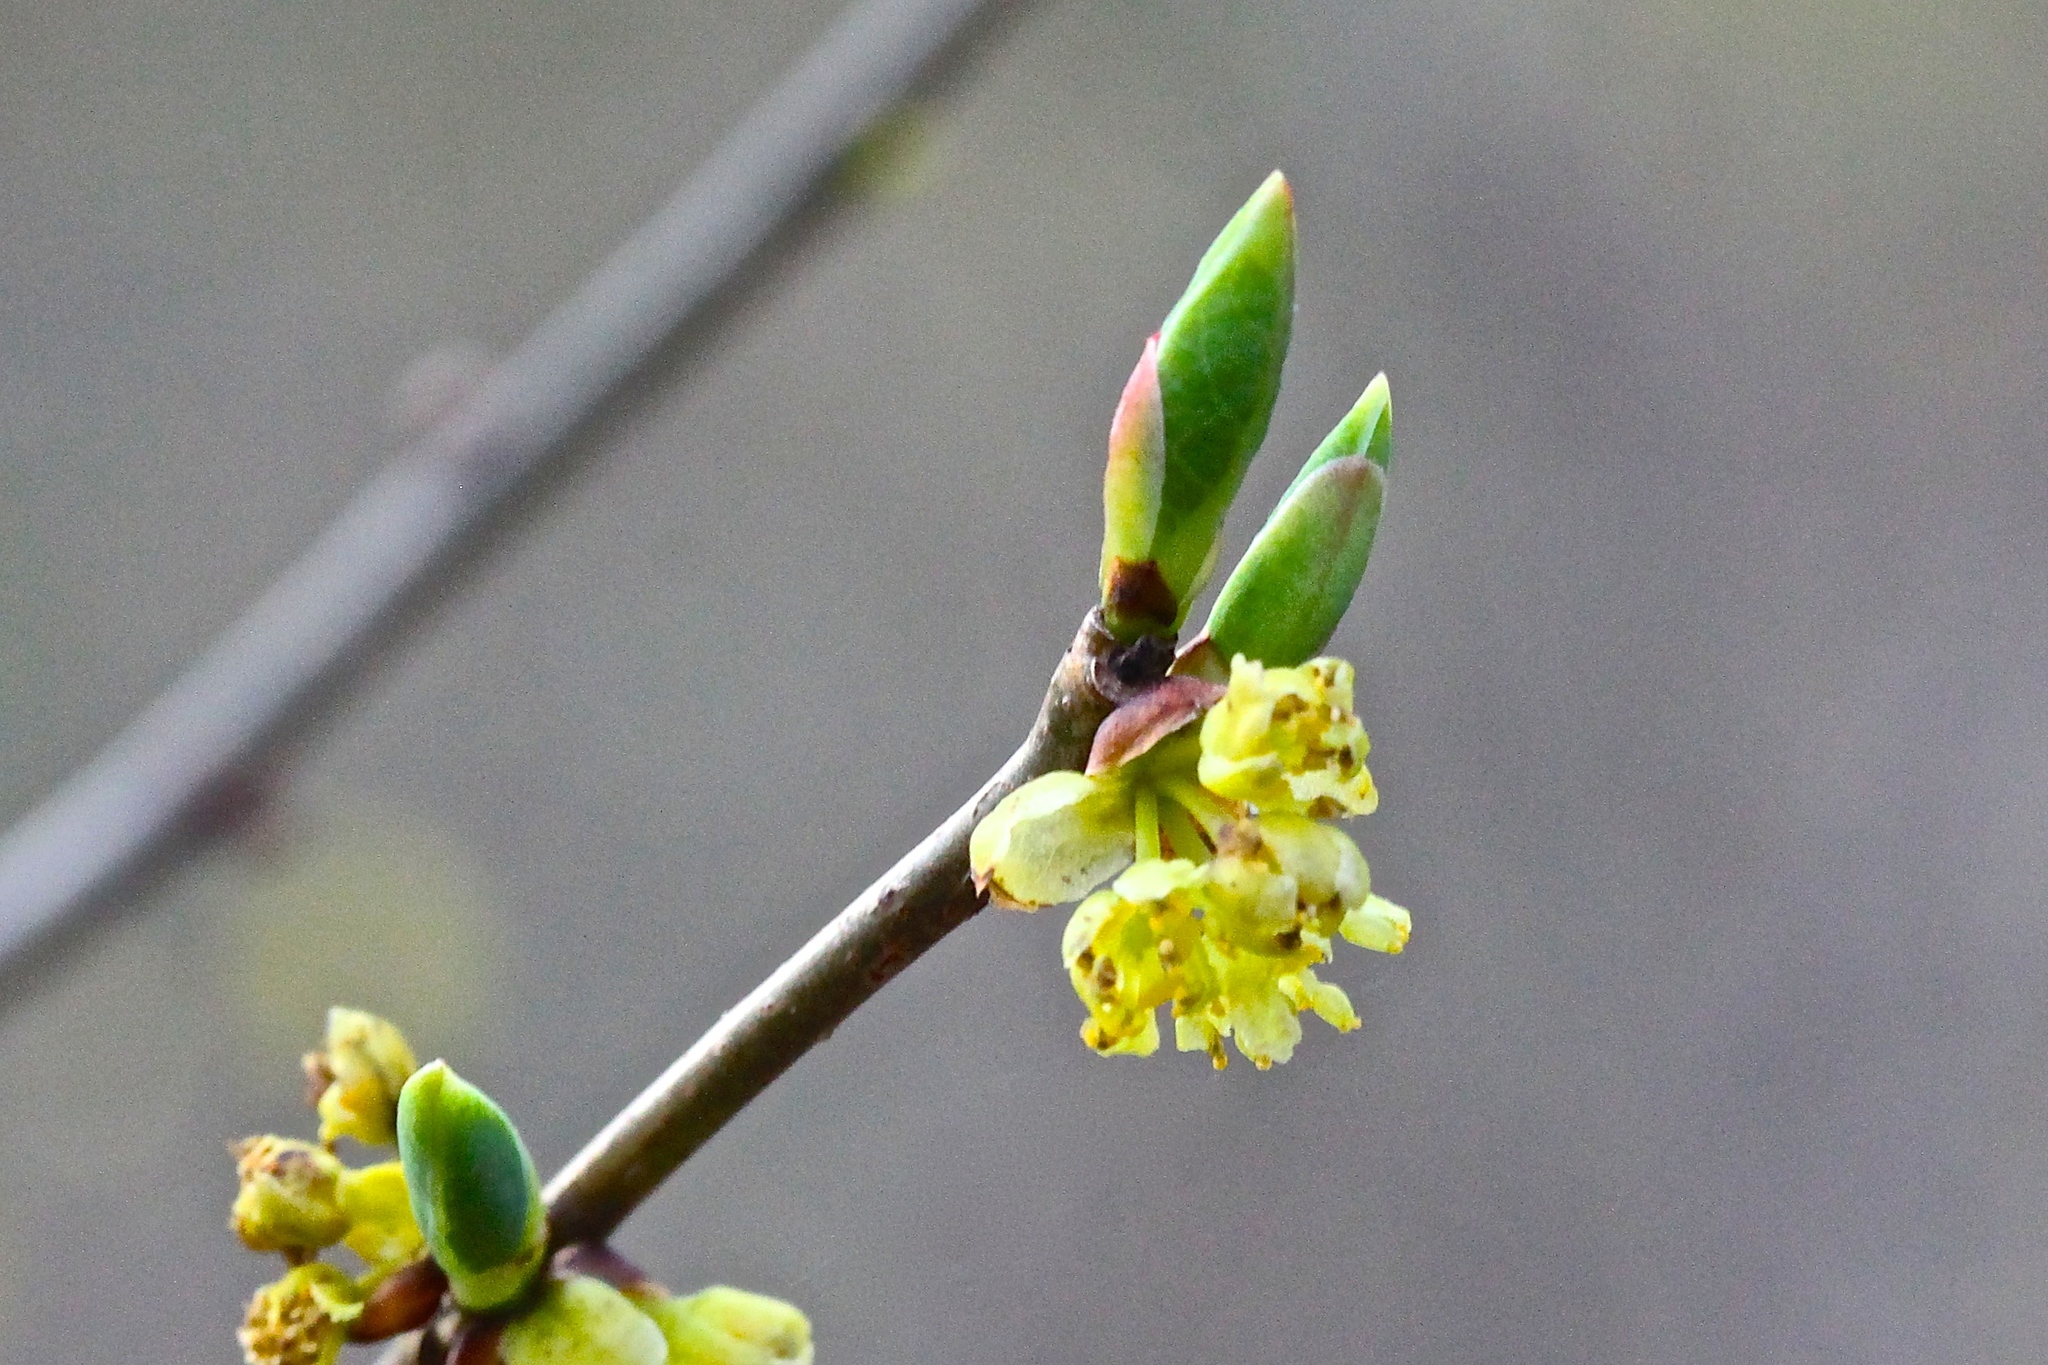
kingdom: Plantae
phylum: Tracheophyta
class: Magnoliopsida
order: Laurales
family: Lauraceae
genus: Lindera
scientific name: Lindera benzoin
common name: Spicebush
